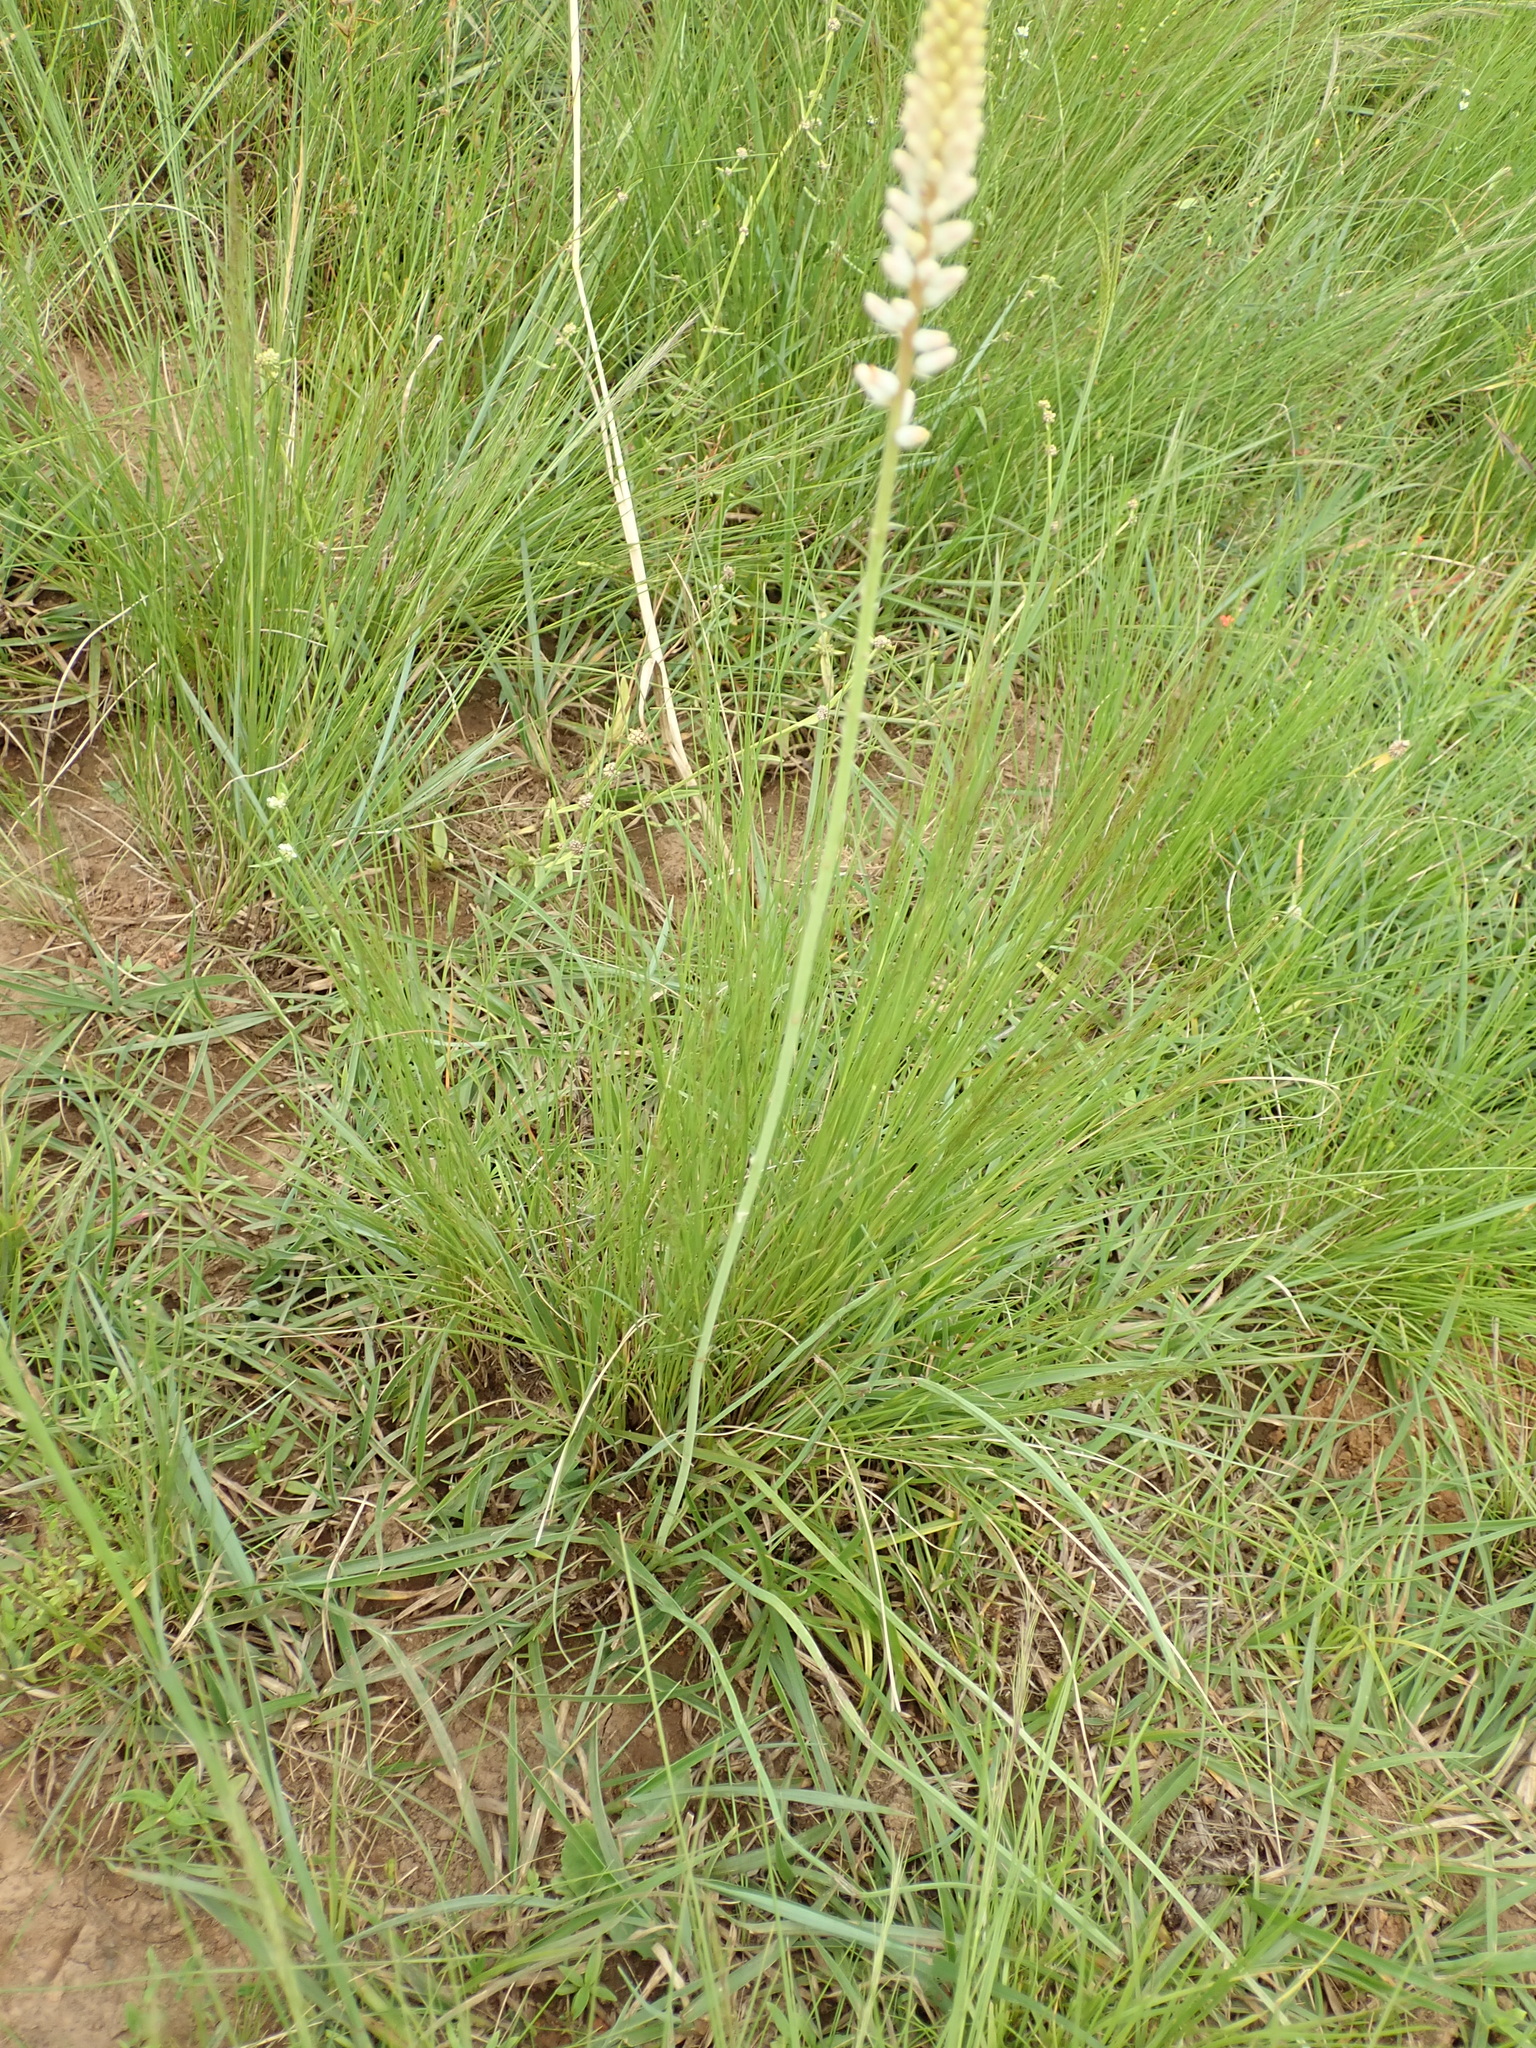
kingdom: Plantae
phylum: Tracheophyta
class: Liliopsida
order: Asparagales
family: Asphodelaceae
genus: Kniphofia
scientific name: Kniphofia buchananii
